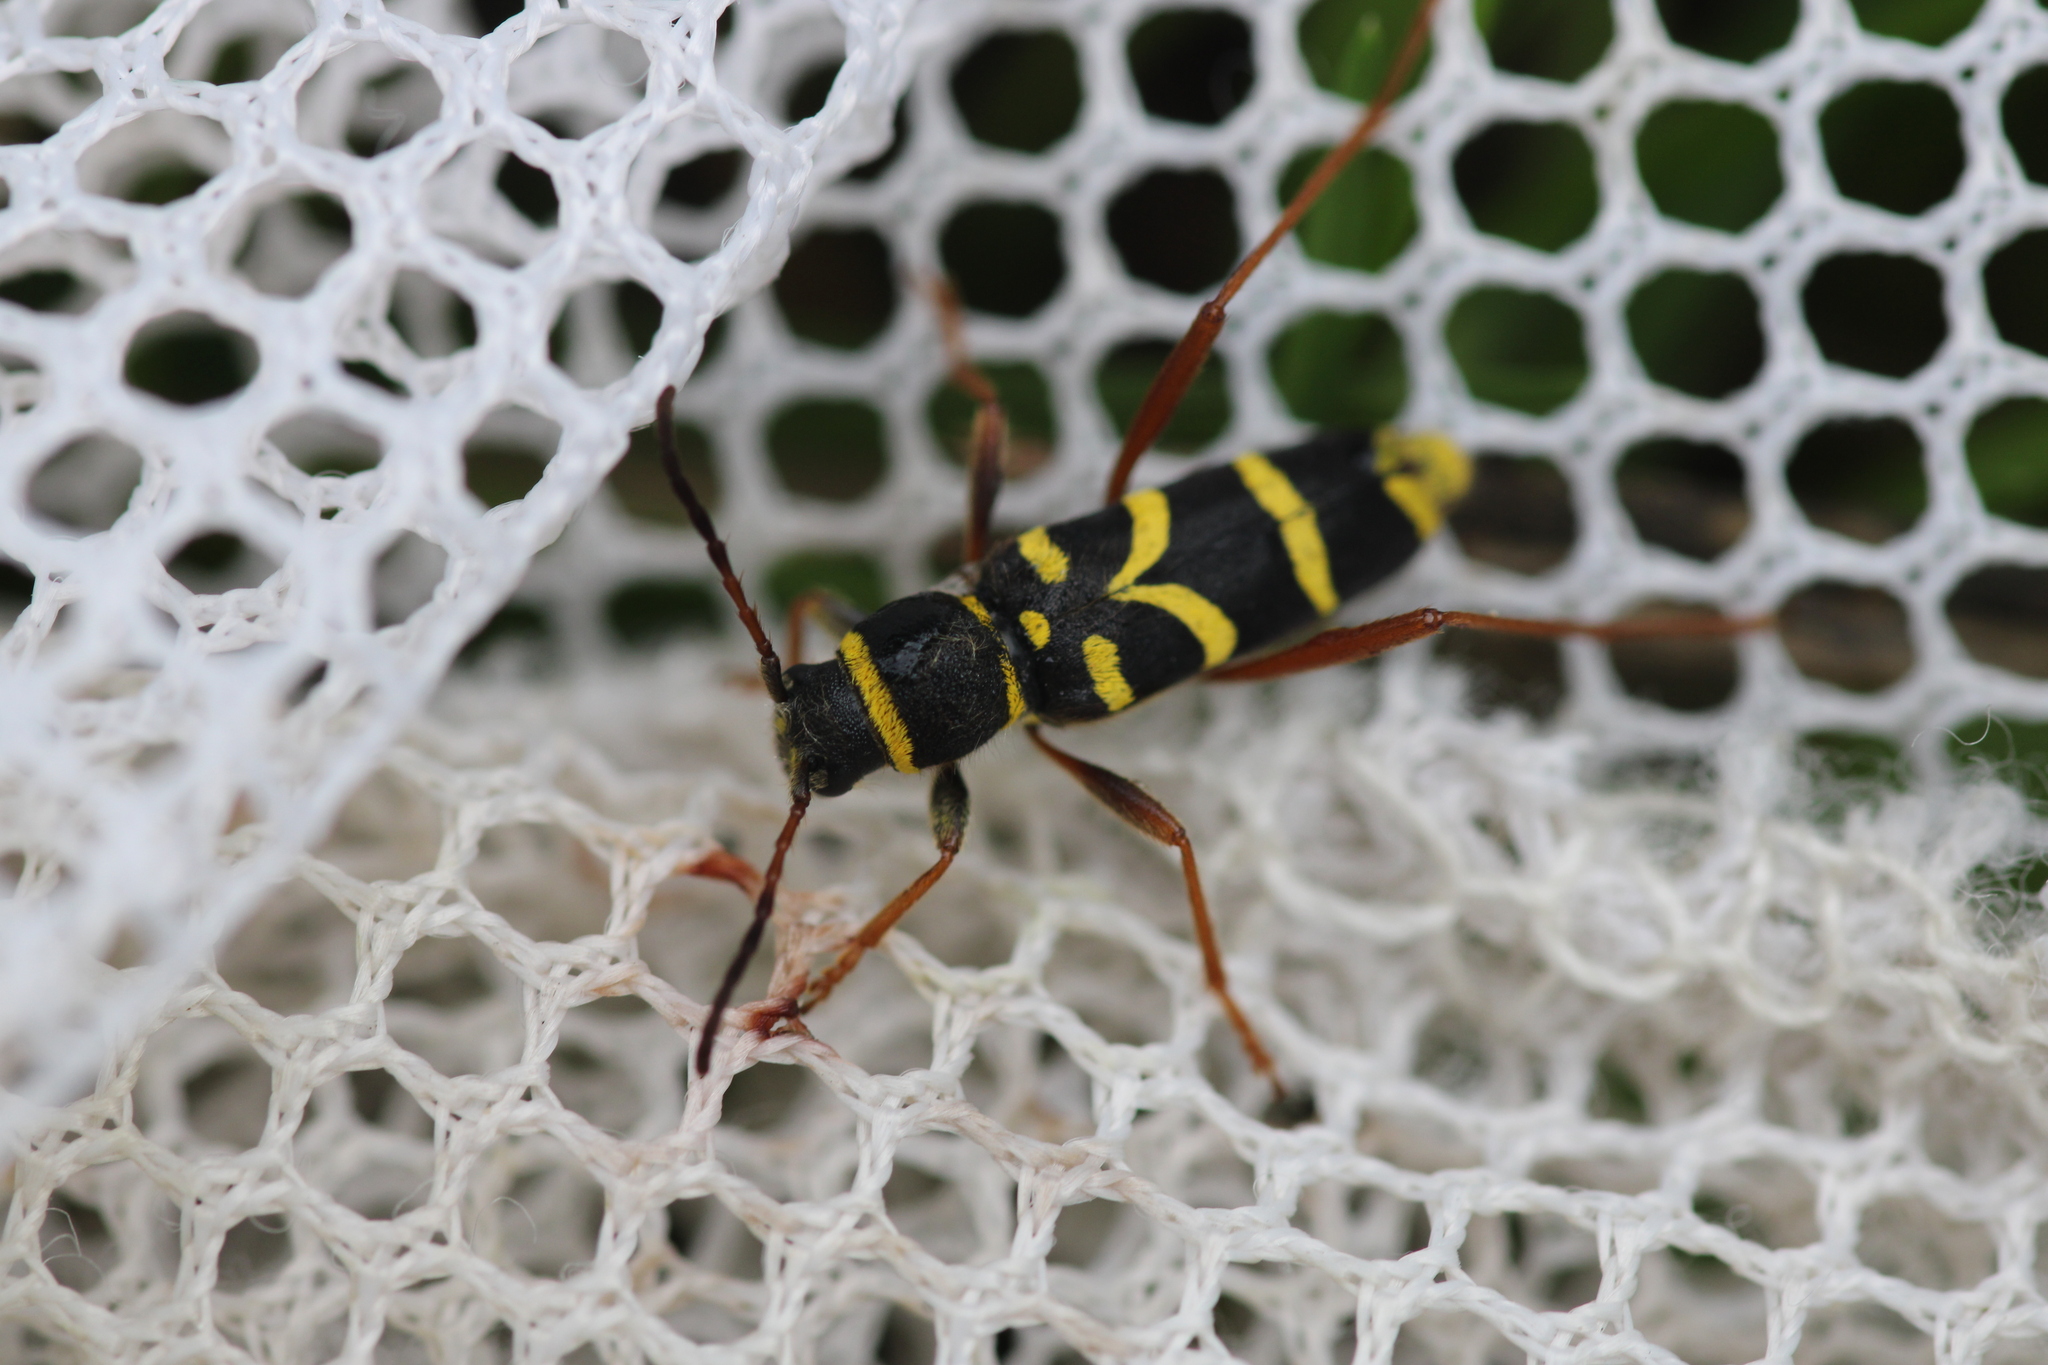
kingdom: Animalia
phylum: Arthropoda
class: Insecta
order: Coleoptera
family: Cerambycidae
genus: Clytus
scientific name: Clytus arietis
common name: Wasp beetle
